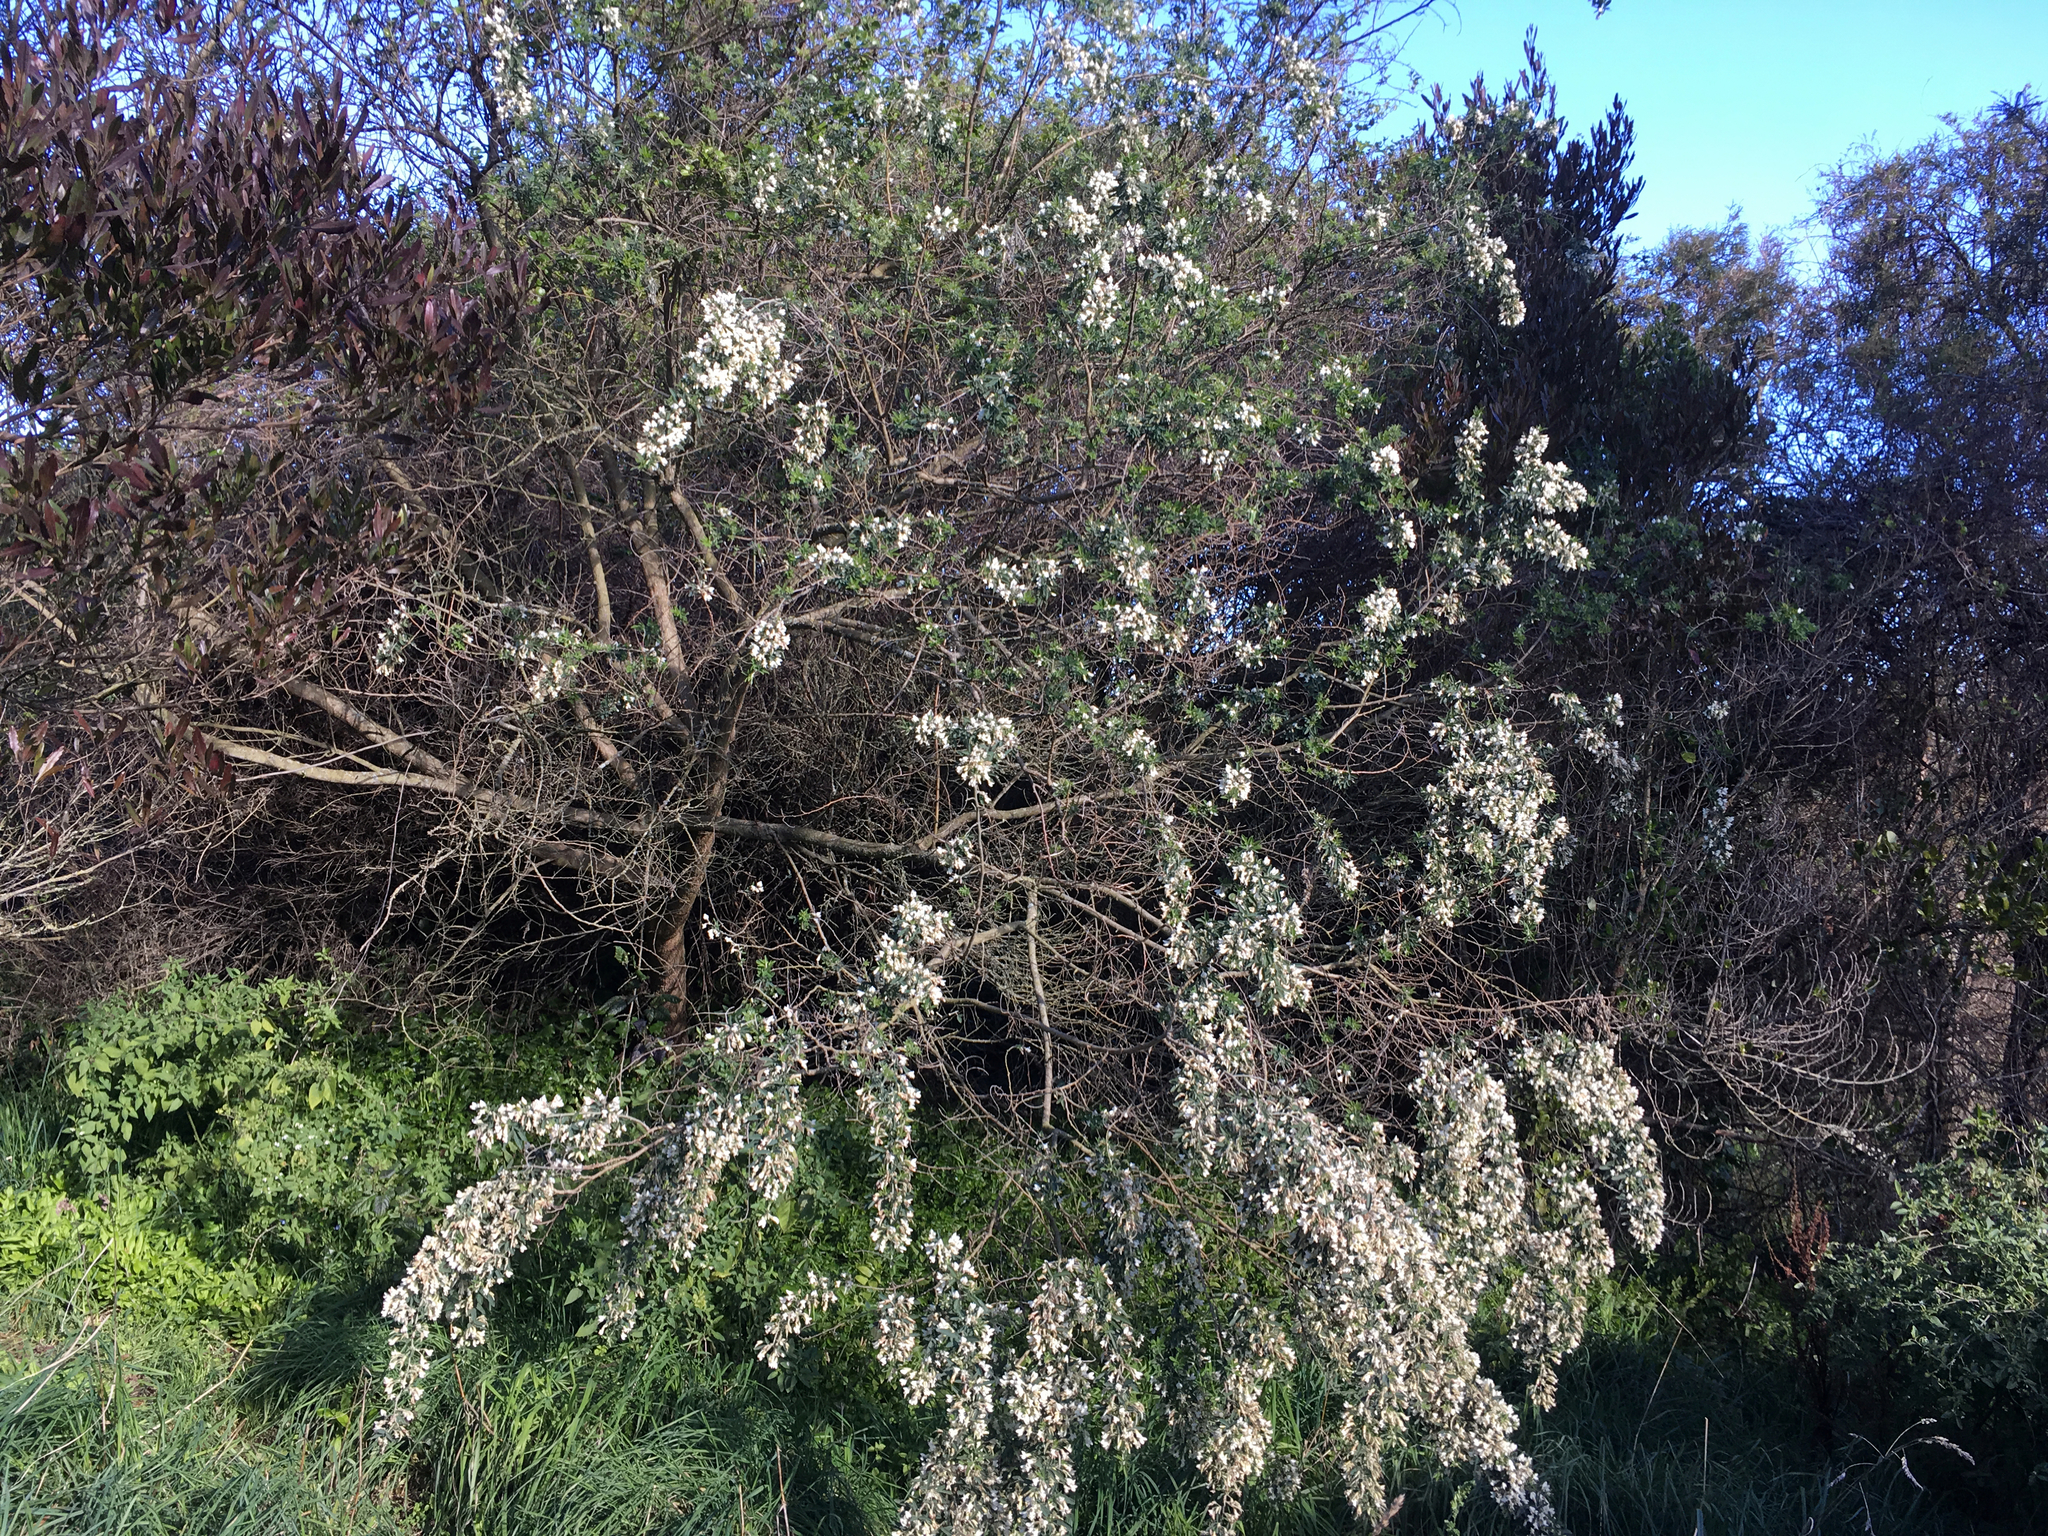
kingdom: Plantae
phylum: Tracheophyta
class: Magnoliopsida
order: Fabales
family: Fabaceae
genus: Chamaecytisus
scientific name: Chamaecytisus prolifer
